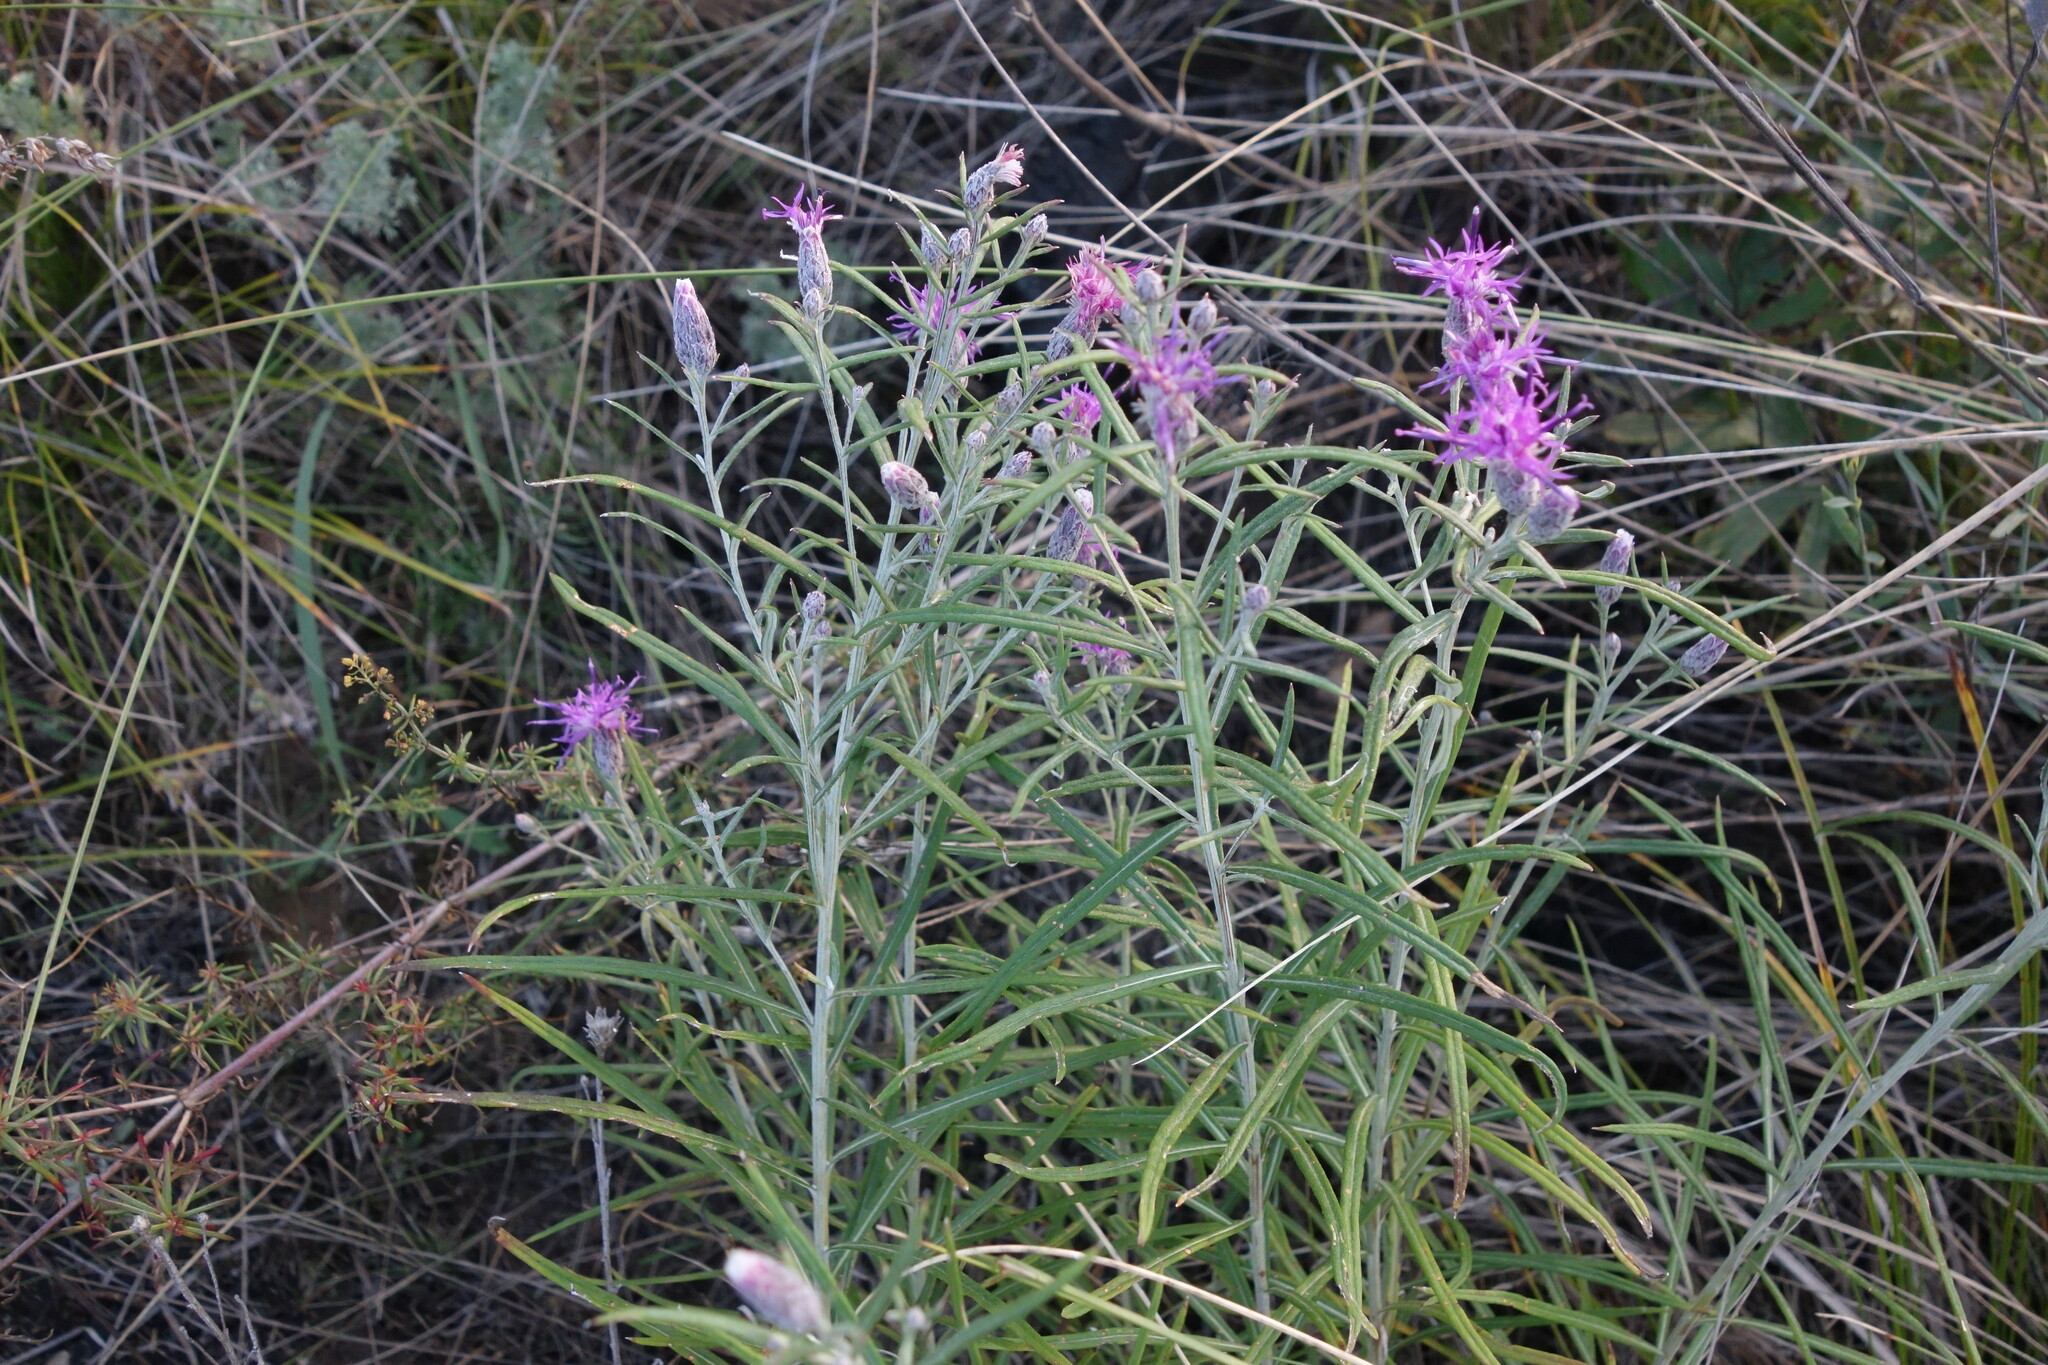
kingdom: Plantae
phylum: Tracheophyta
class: Magnoliopsida
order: Asterales
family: Asteraceae
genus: Saussurea
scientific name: Saussurea salicifolia
